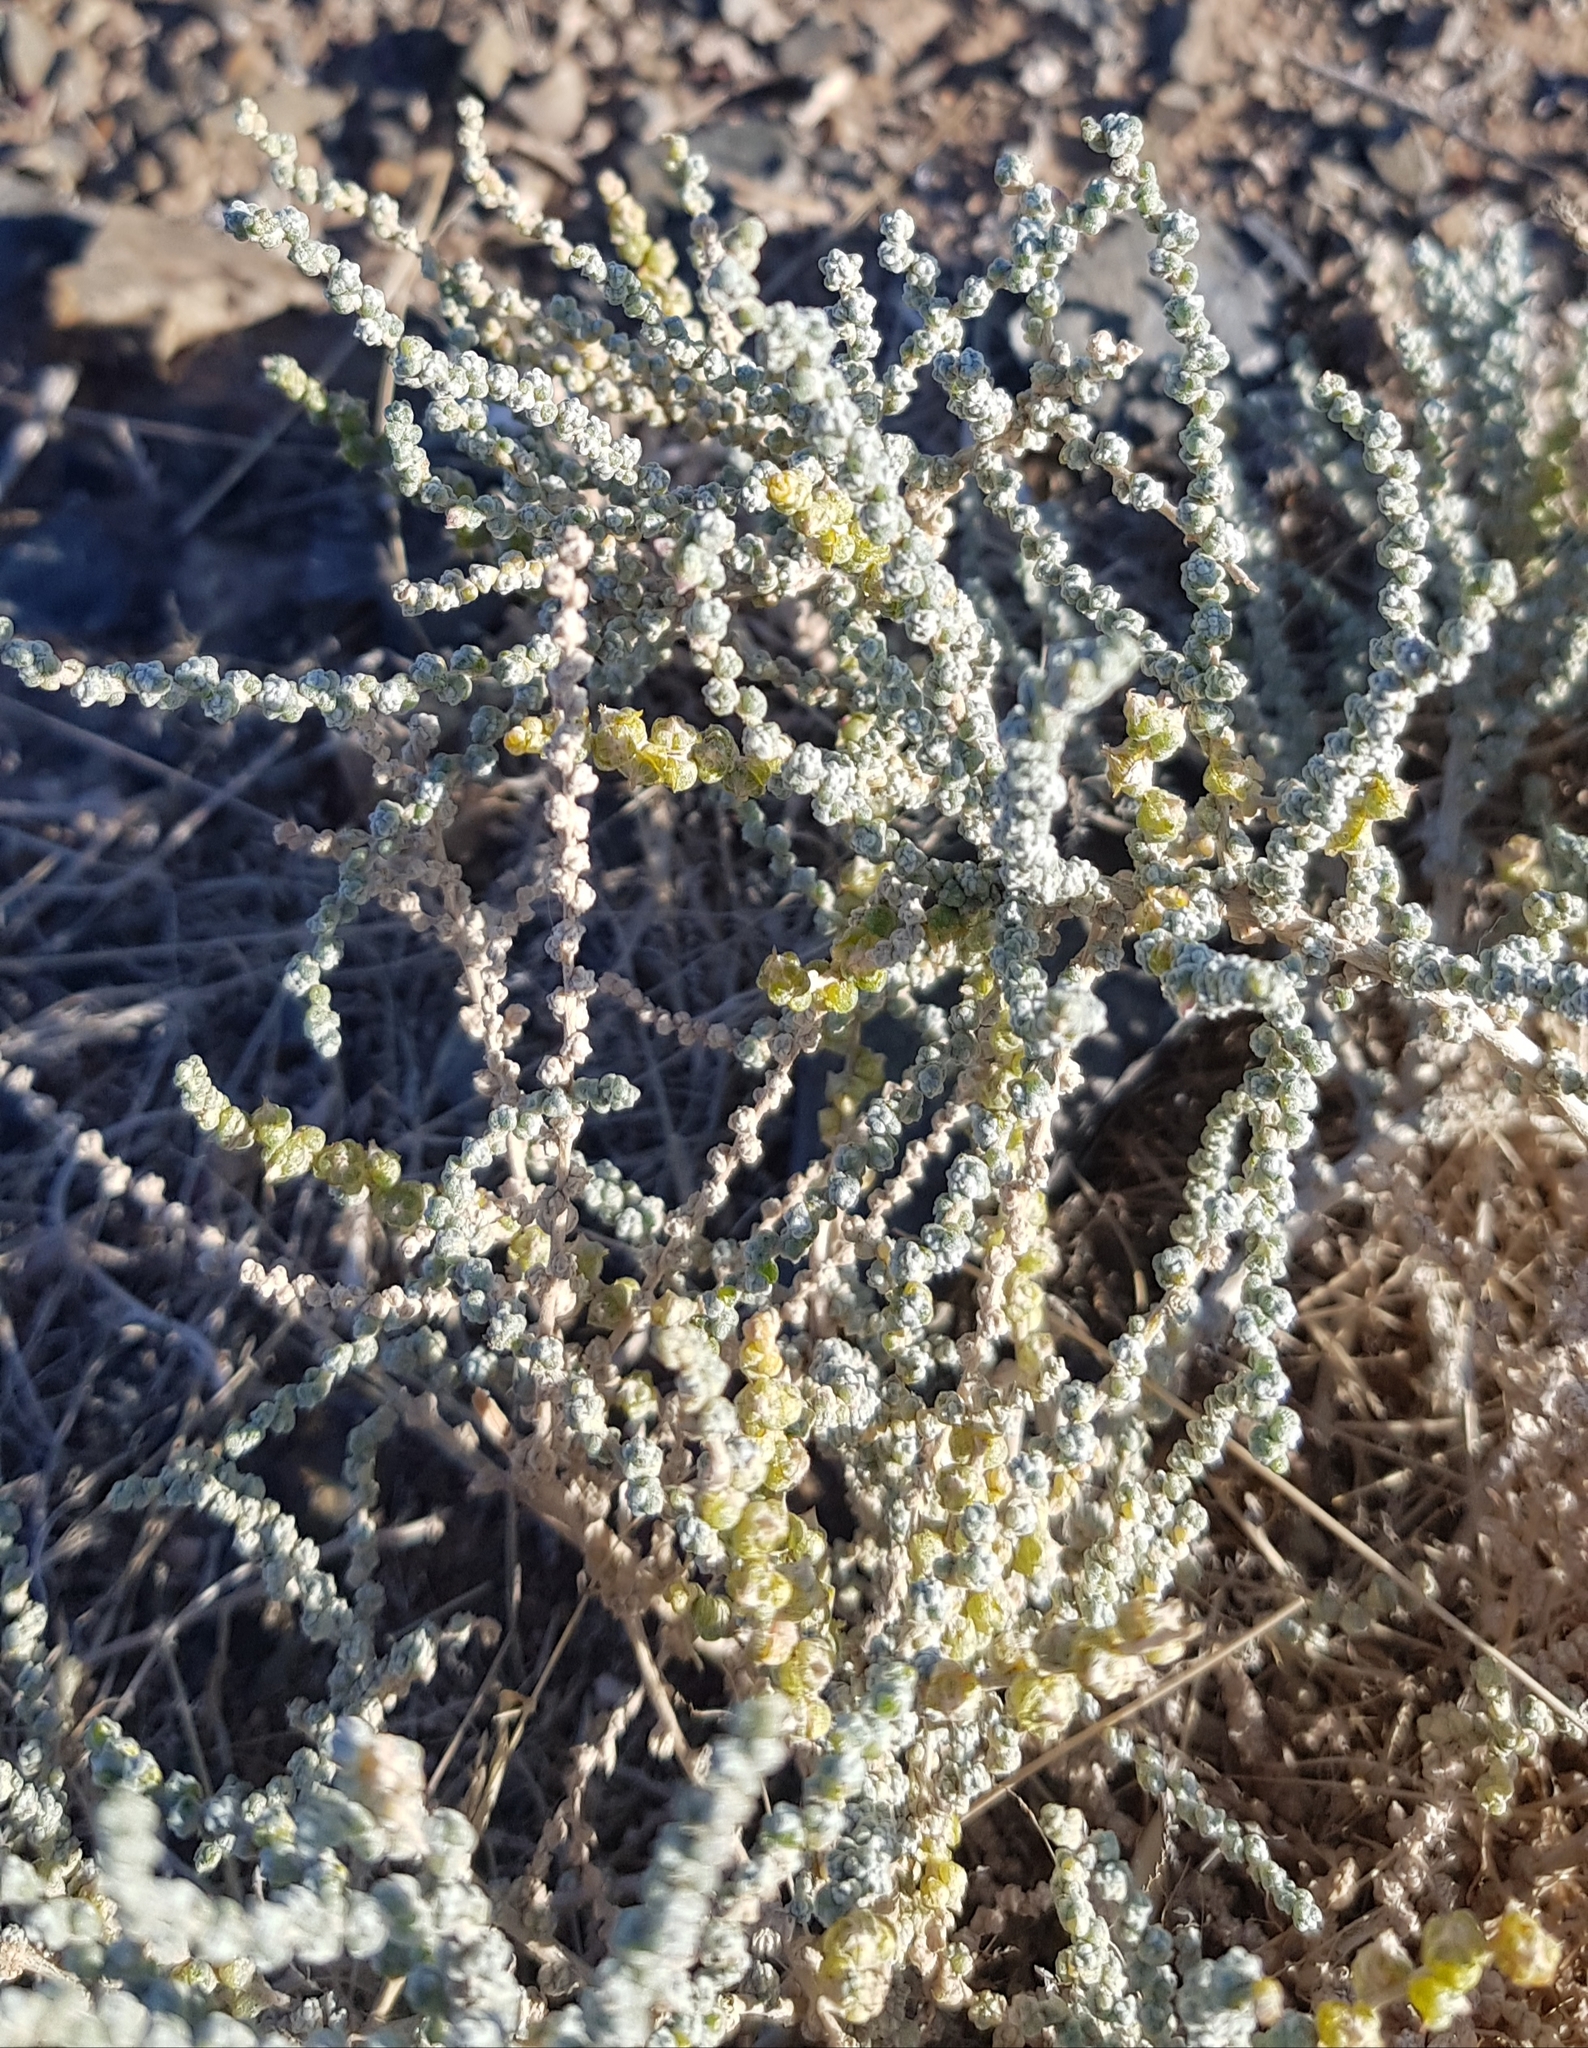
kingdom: Plantae
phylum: Tracheophyta
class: Magnoliopsida
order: Caryophyllales
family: Amaranthaceae
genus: Caroxylon
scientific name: Caroxylon passerinum
